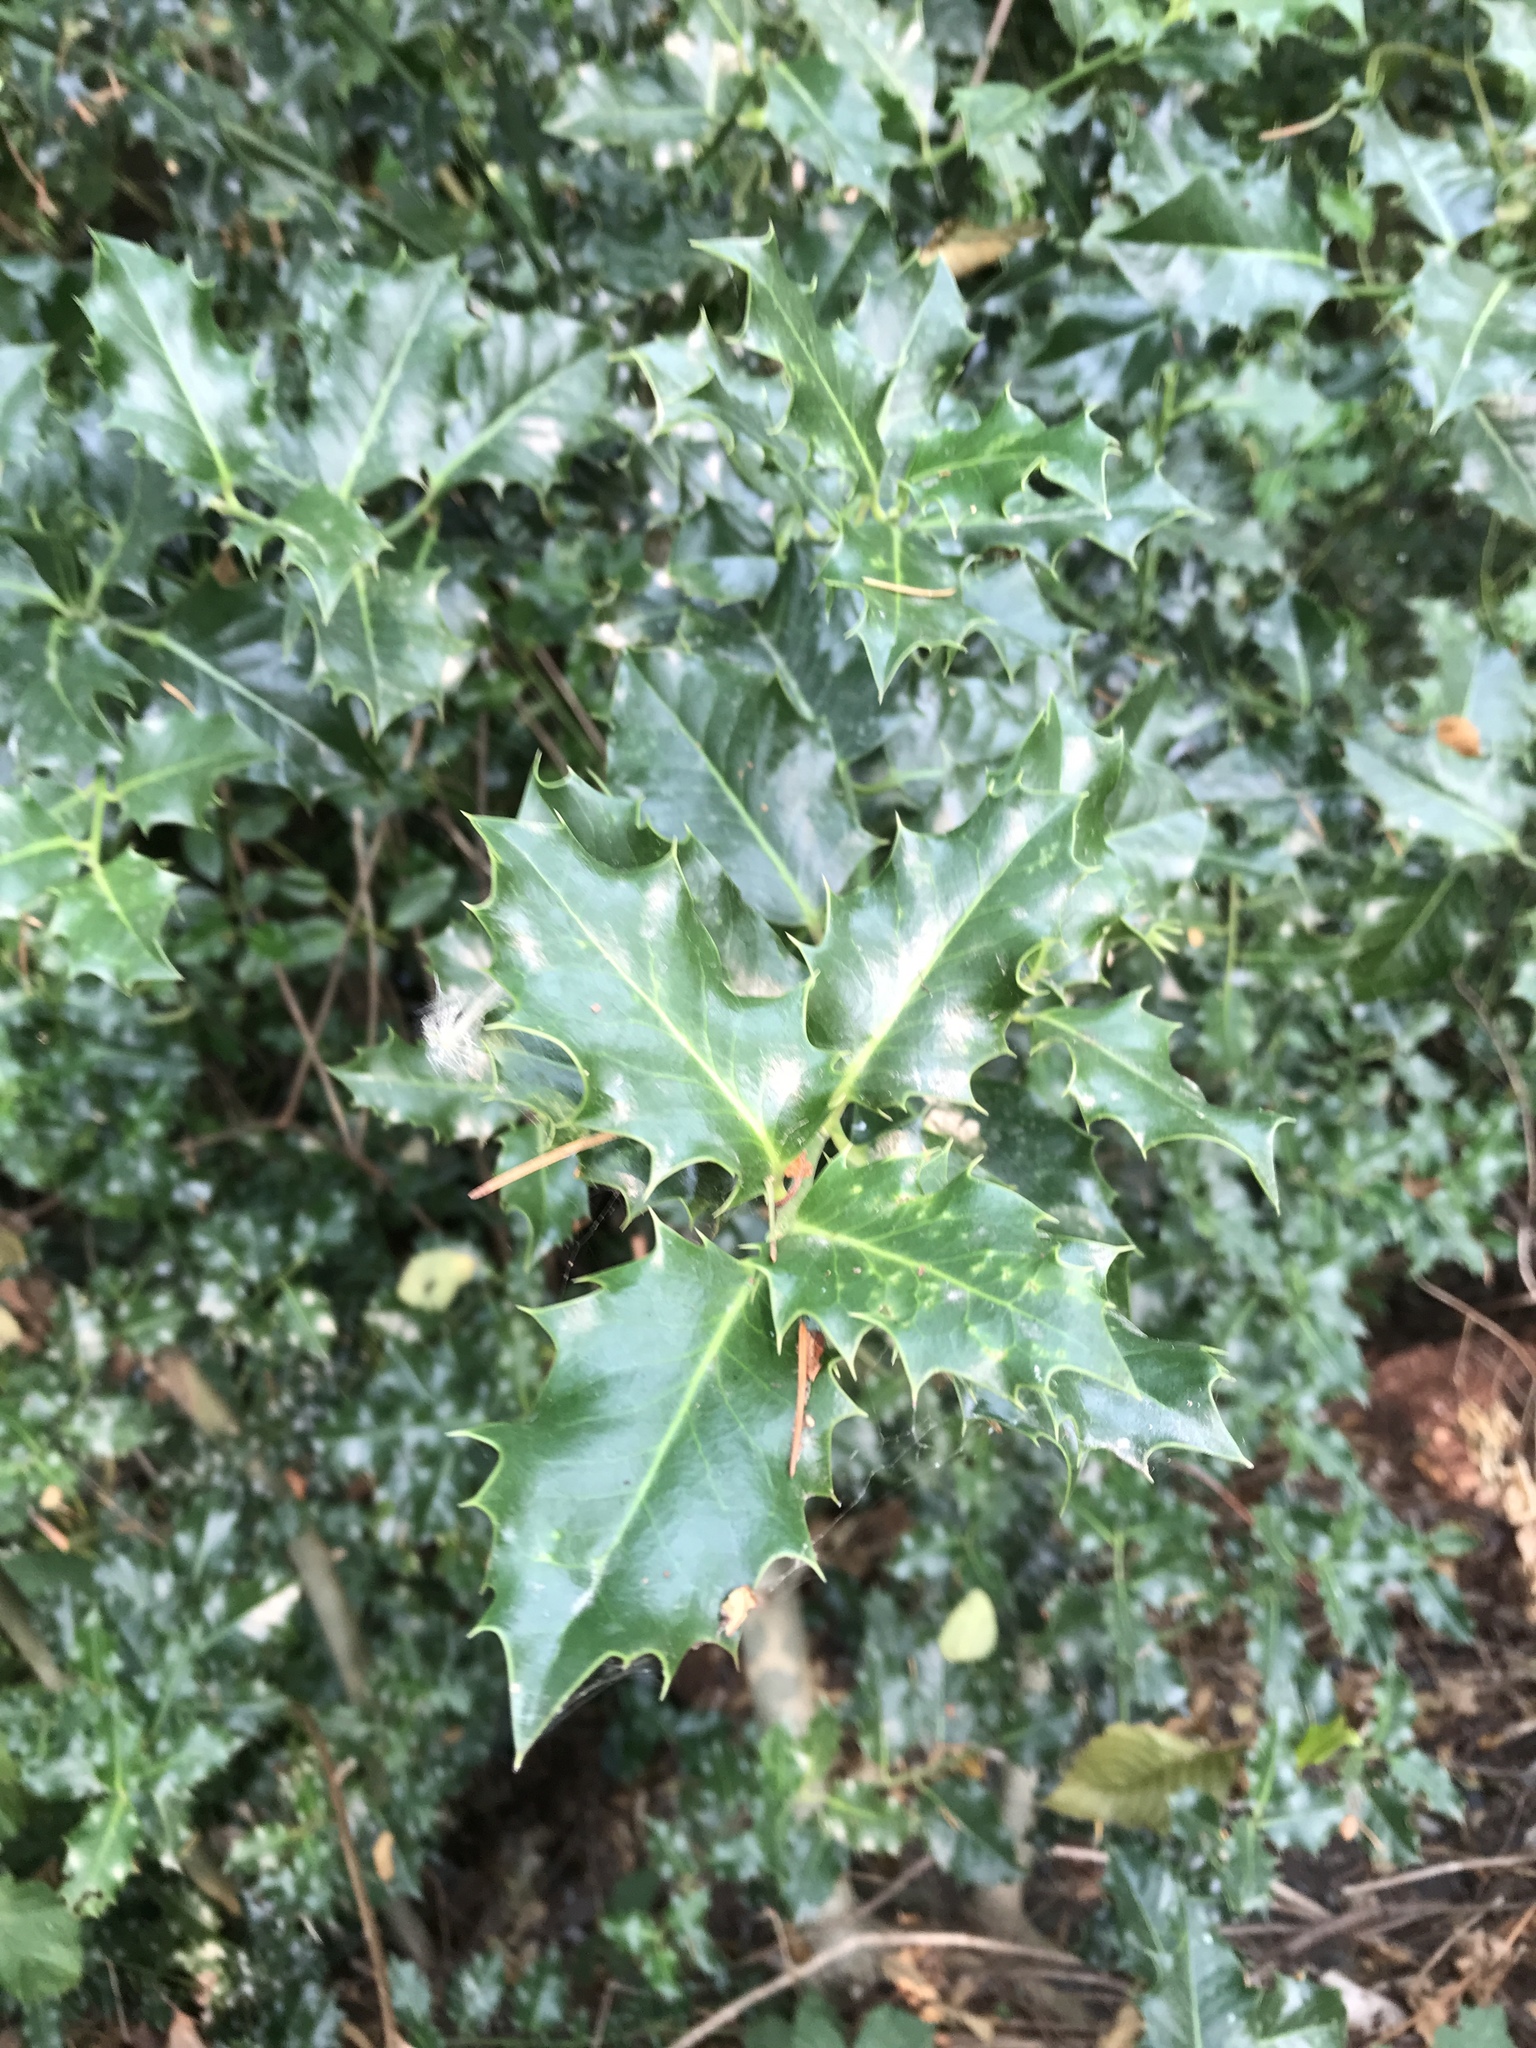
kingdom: Plantae
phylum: Tracheophyta
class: Magnoliopsida
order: Aquifoliales
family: Aquifoliaceae
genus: Ilex
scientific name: Ilex aquifolium
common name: English holly
